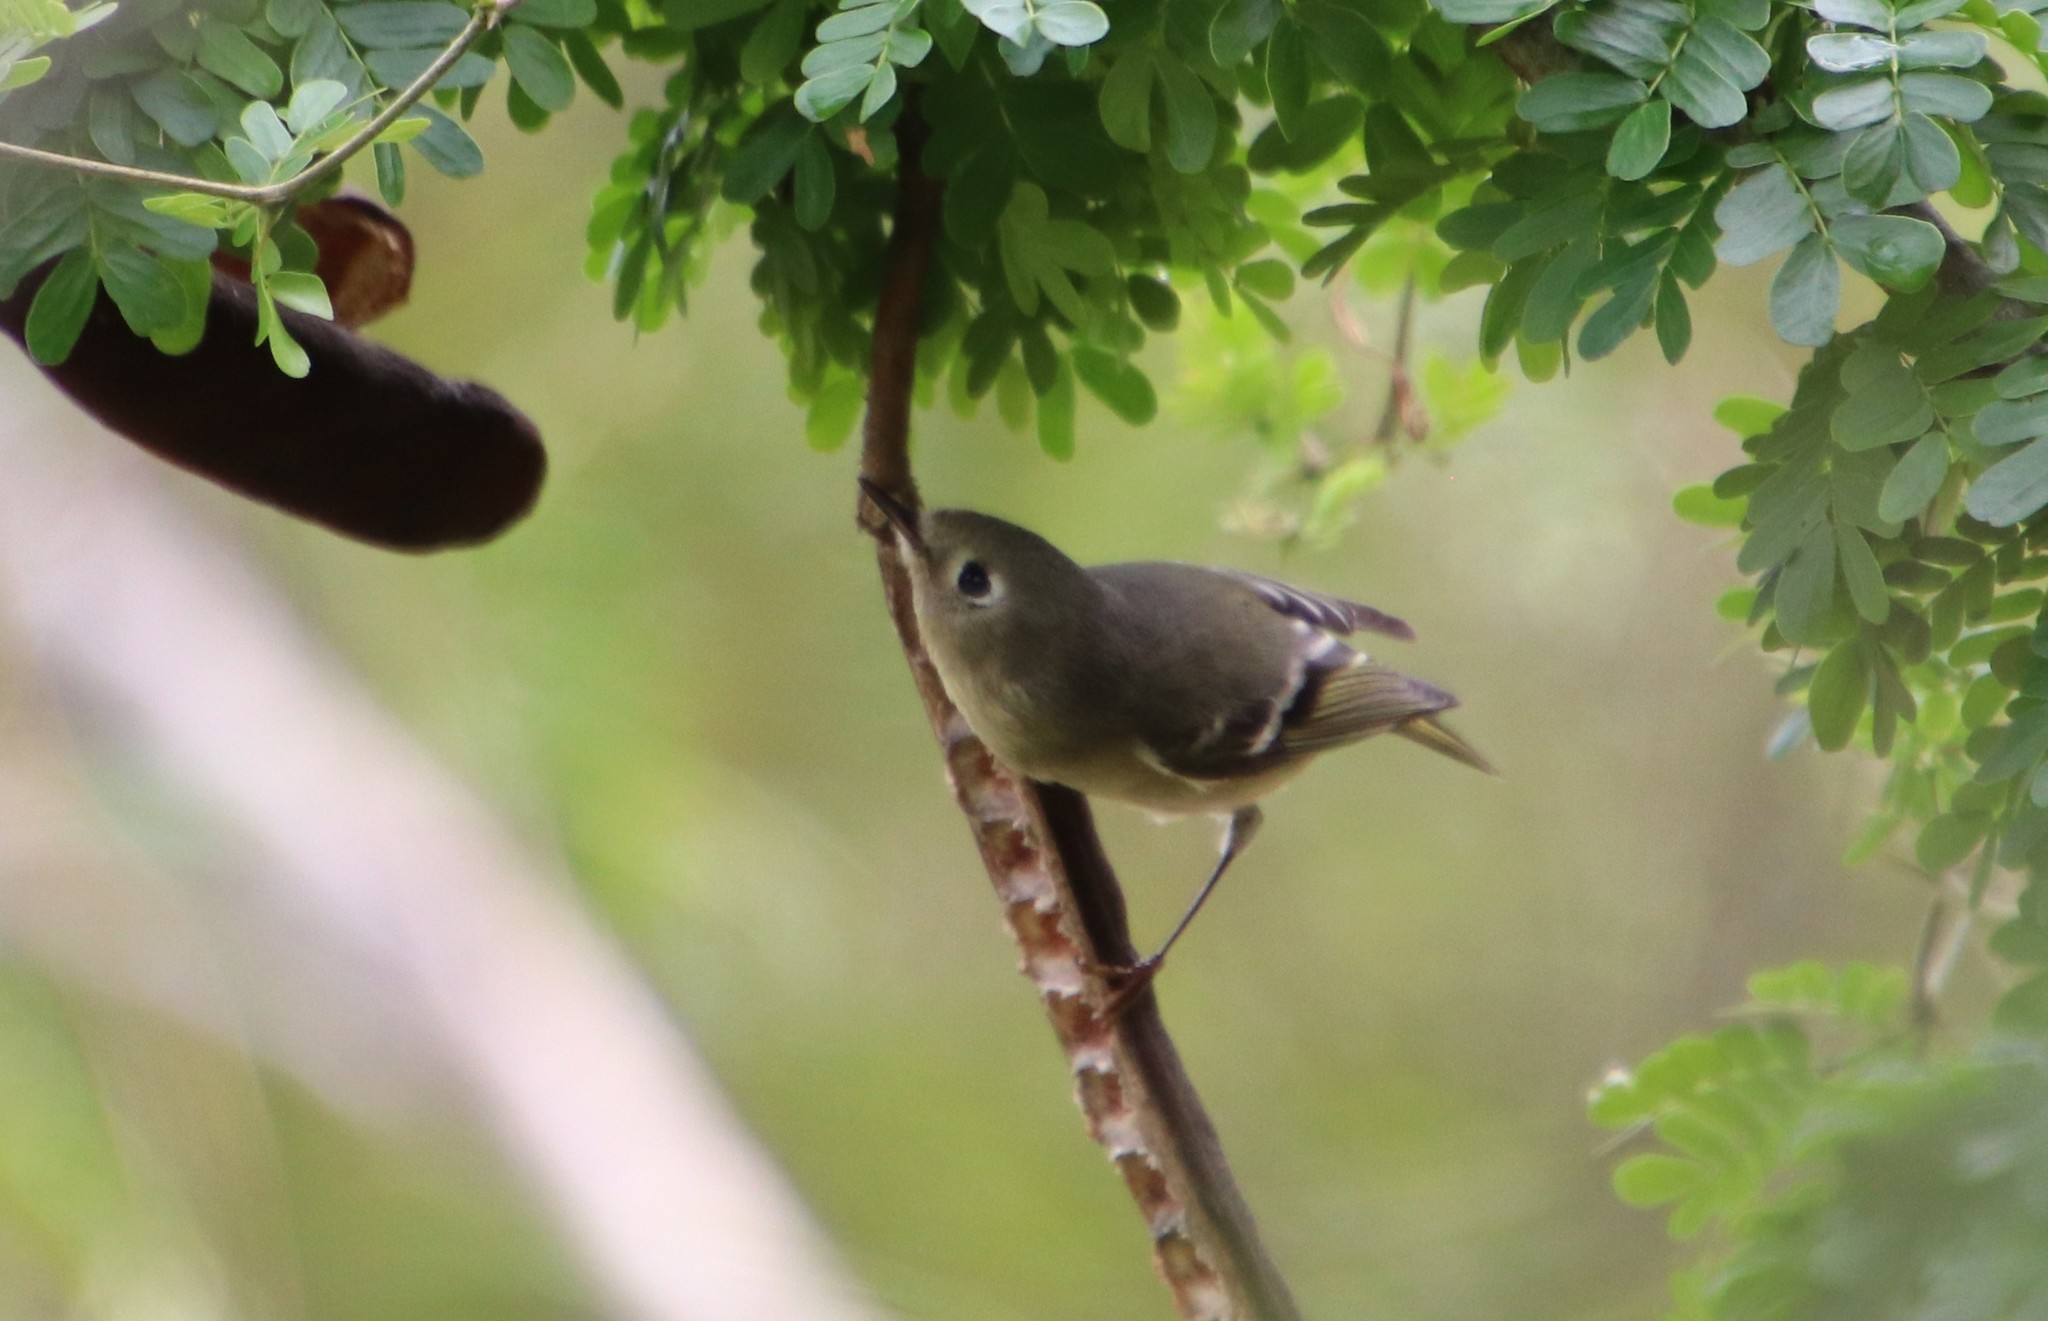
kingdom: Animalia
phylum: Chordata
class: Aves
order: Passeriformes
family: Regulidae
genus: Regulus
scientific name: Regulus calendula
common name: Ruby-crowned kinglet
